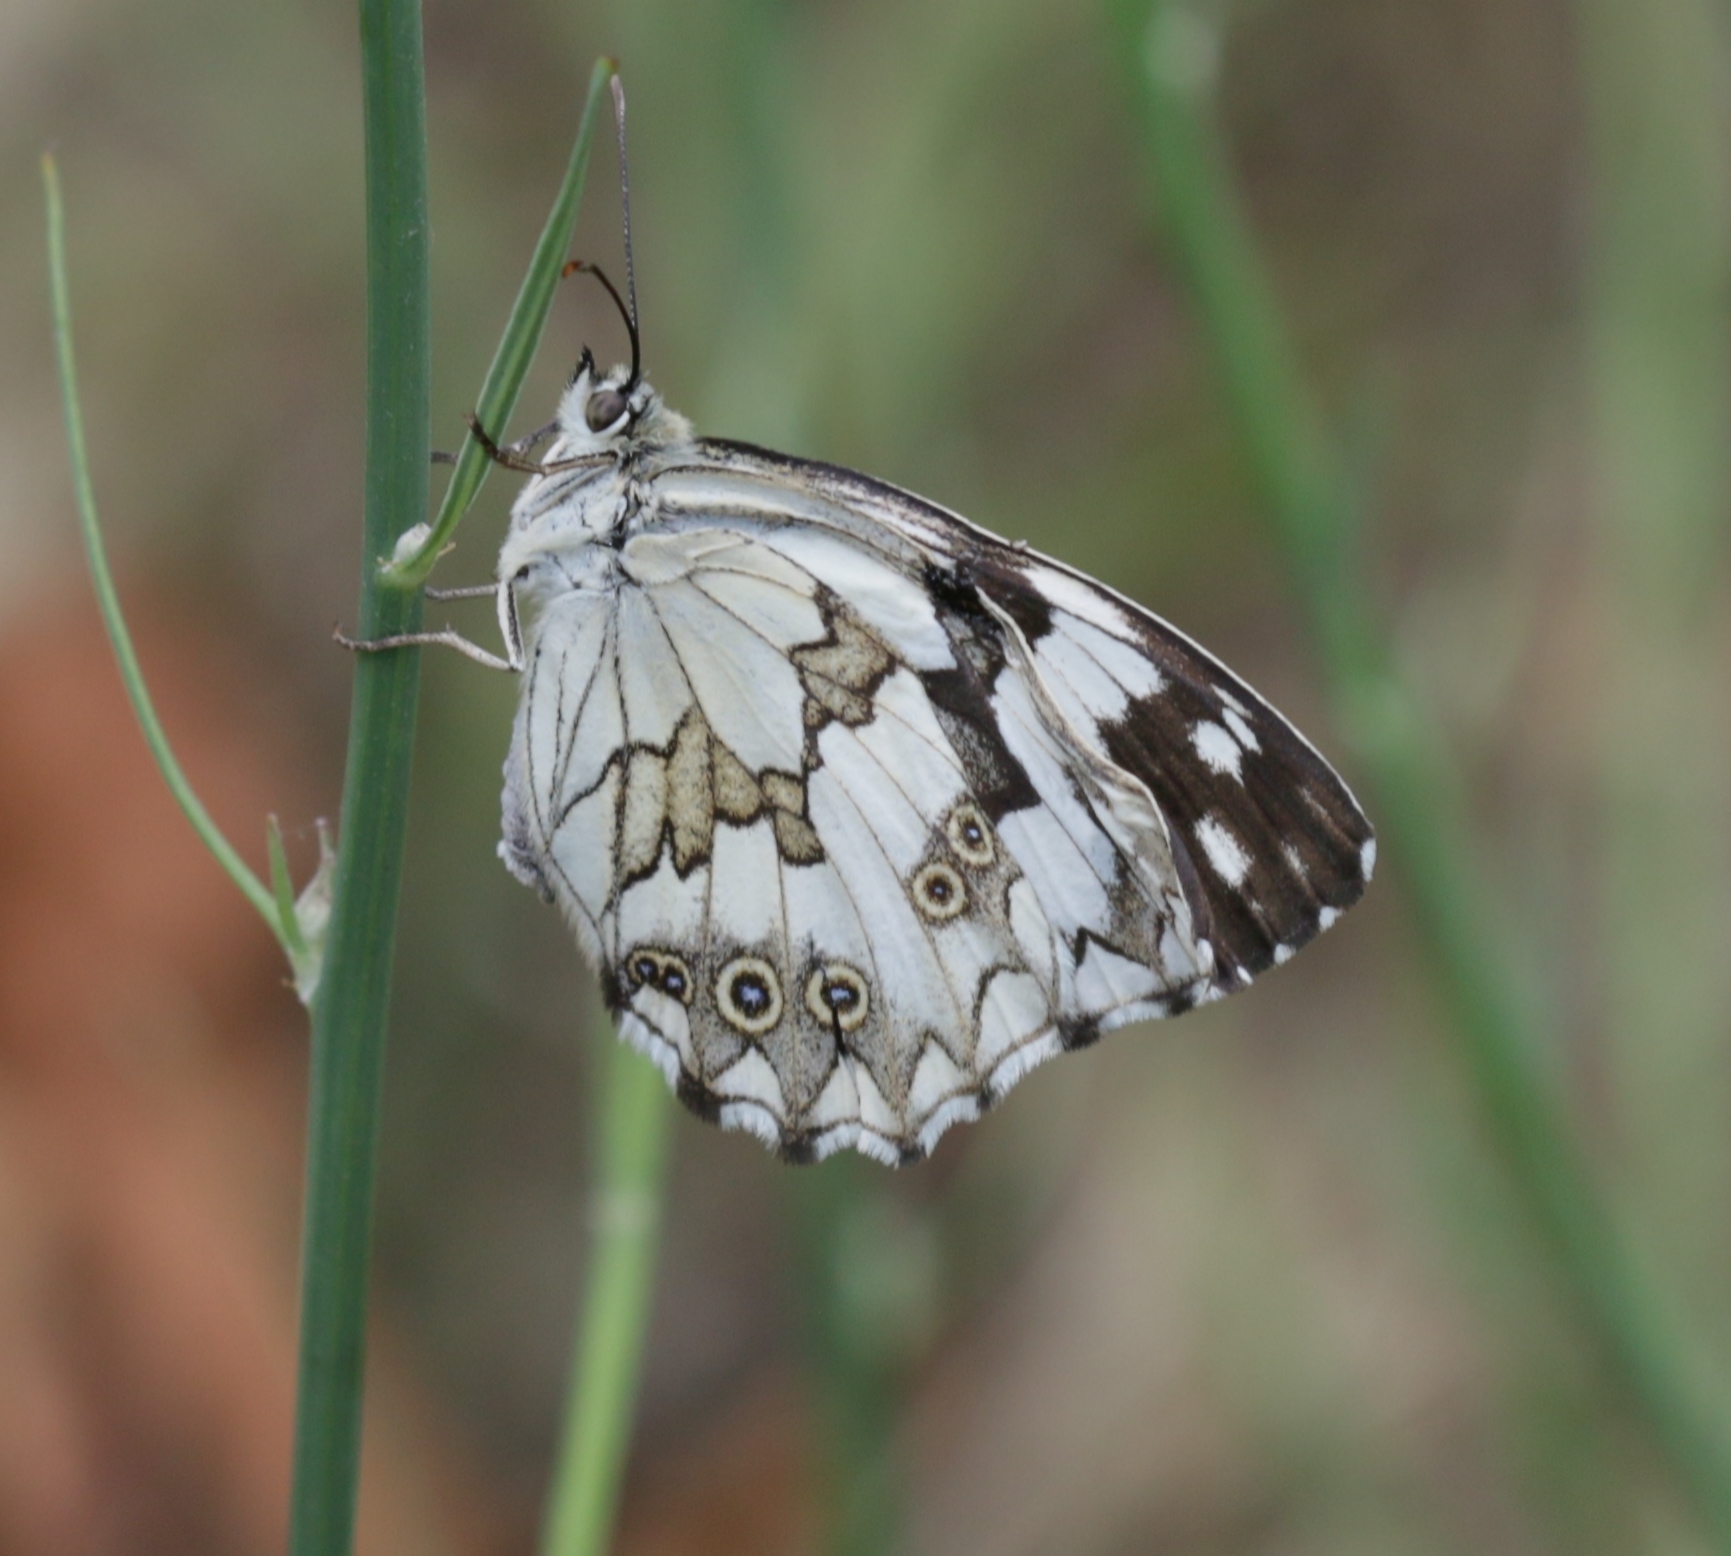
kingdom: Animalia
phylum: Arthropoda
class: Insecta
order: Lepidoptera
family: Nymphalidae
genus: Melanargia
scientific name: Melanargia lachesis
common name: Iberian marbled white
